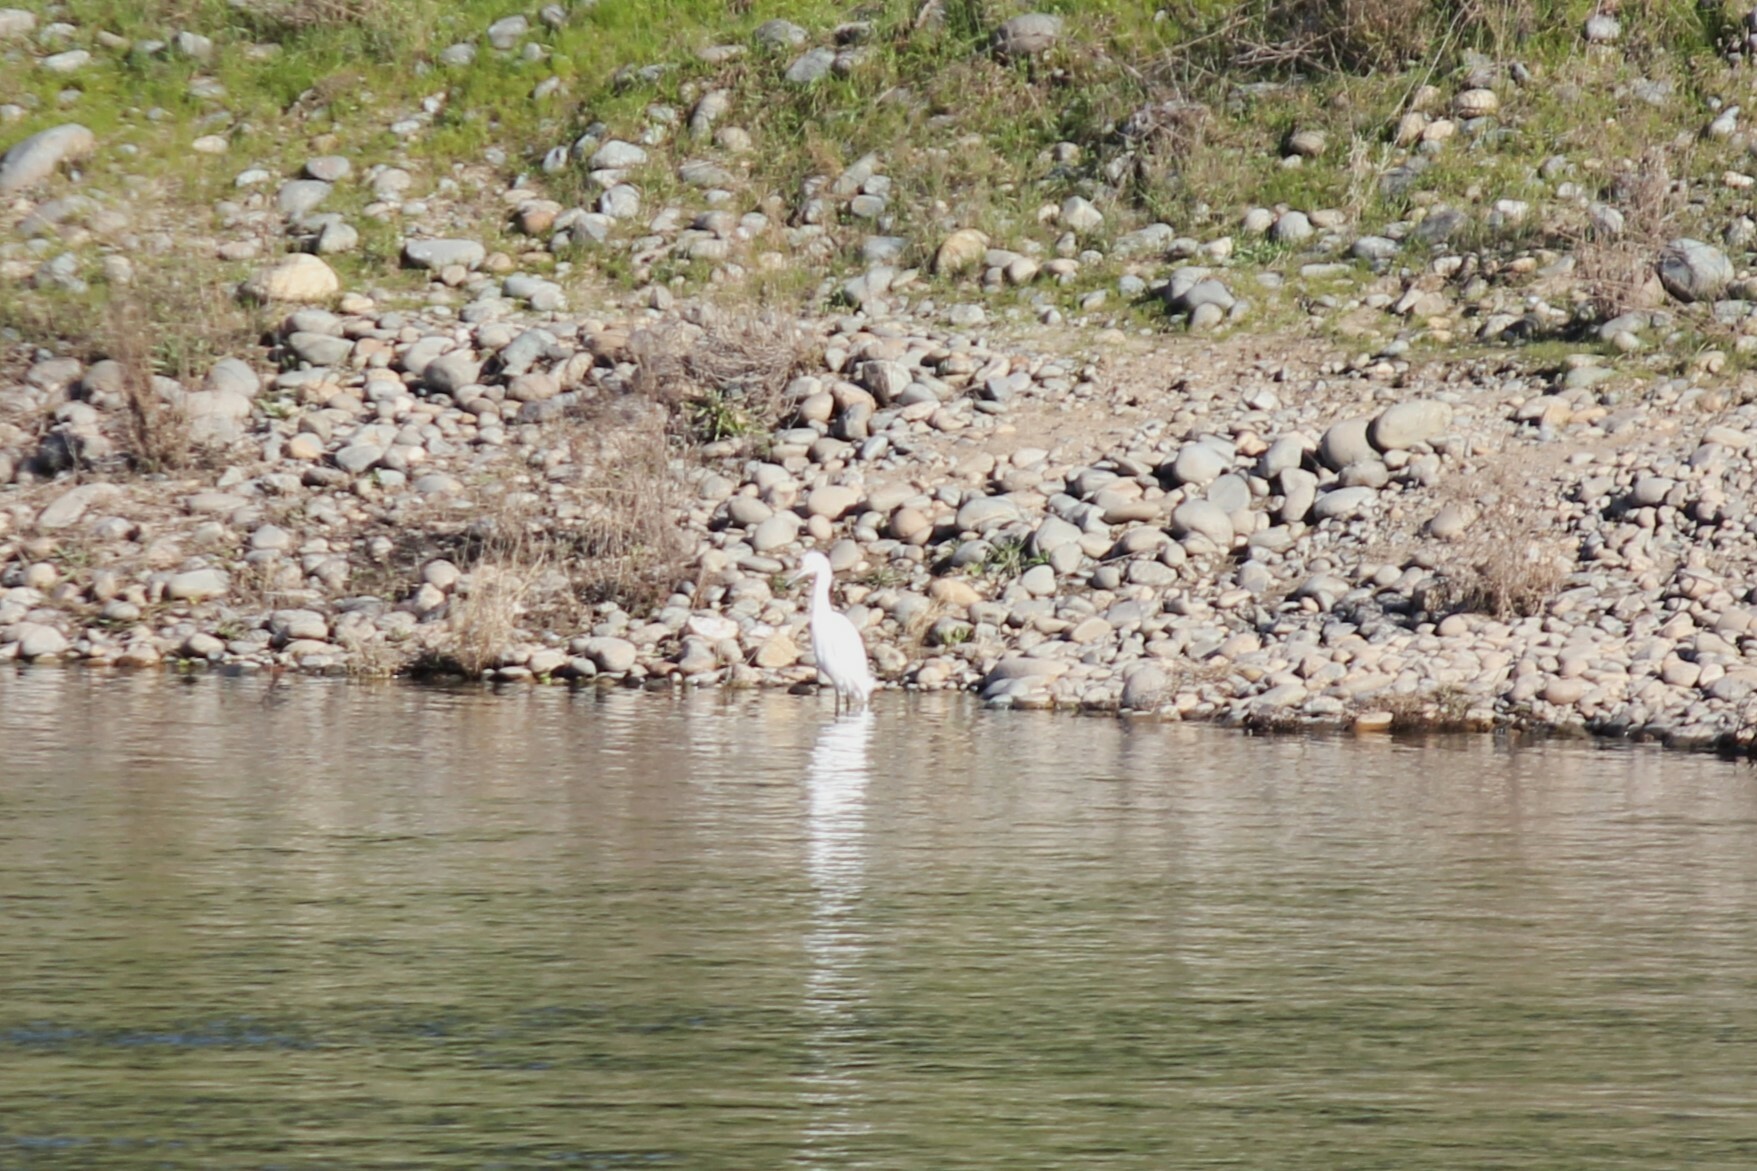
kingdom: Animalia
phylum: Chordata
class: Aves
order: Pelecaniformes
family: Ardeidae
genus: Egretta
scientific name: Egretta thula
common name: Snowy egret
